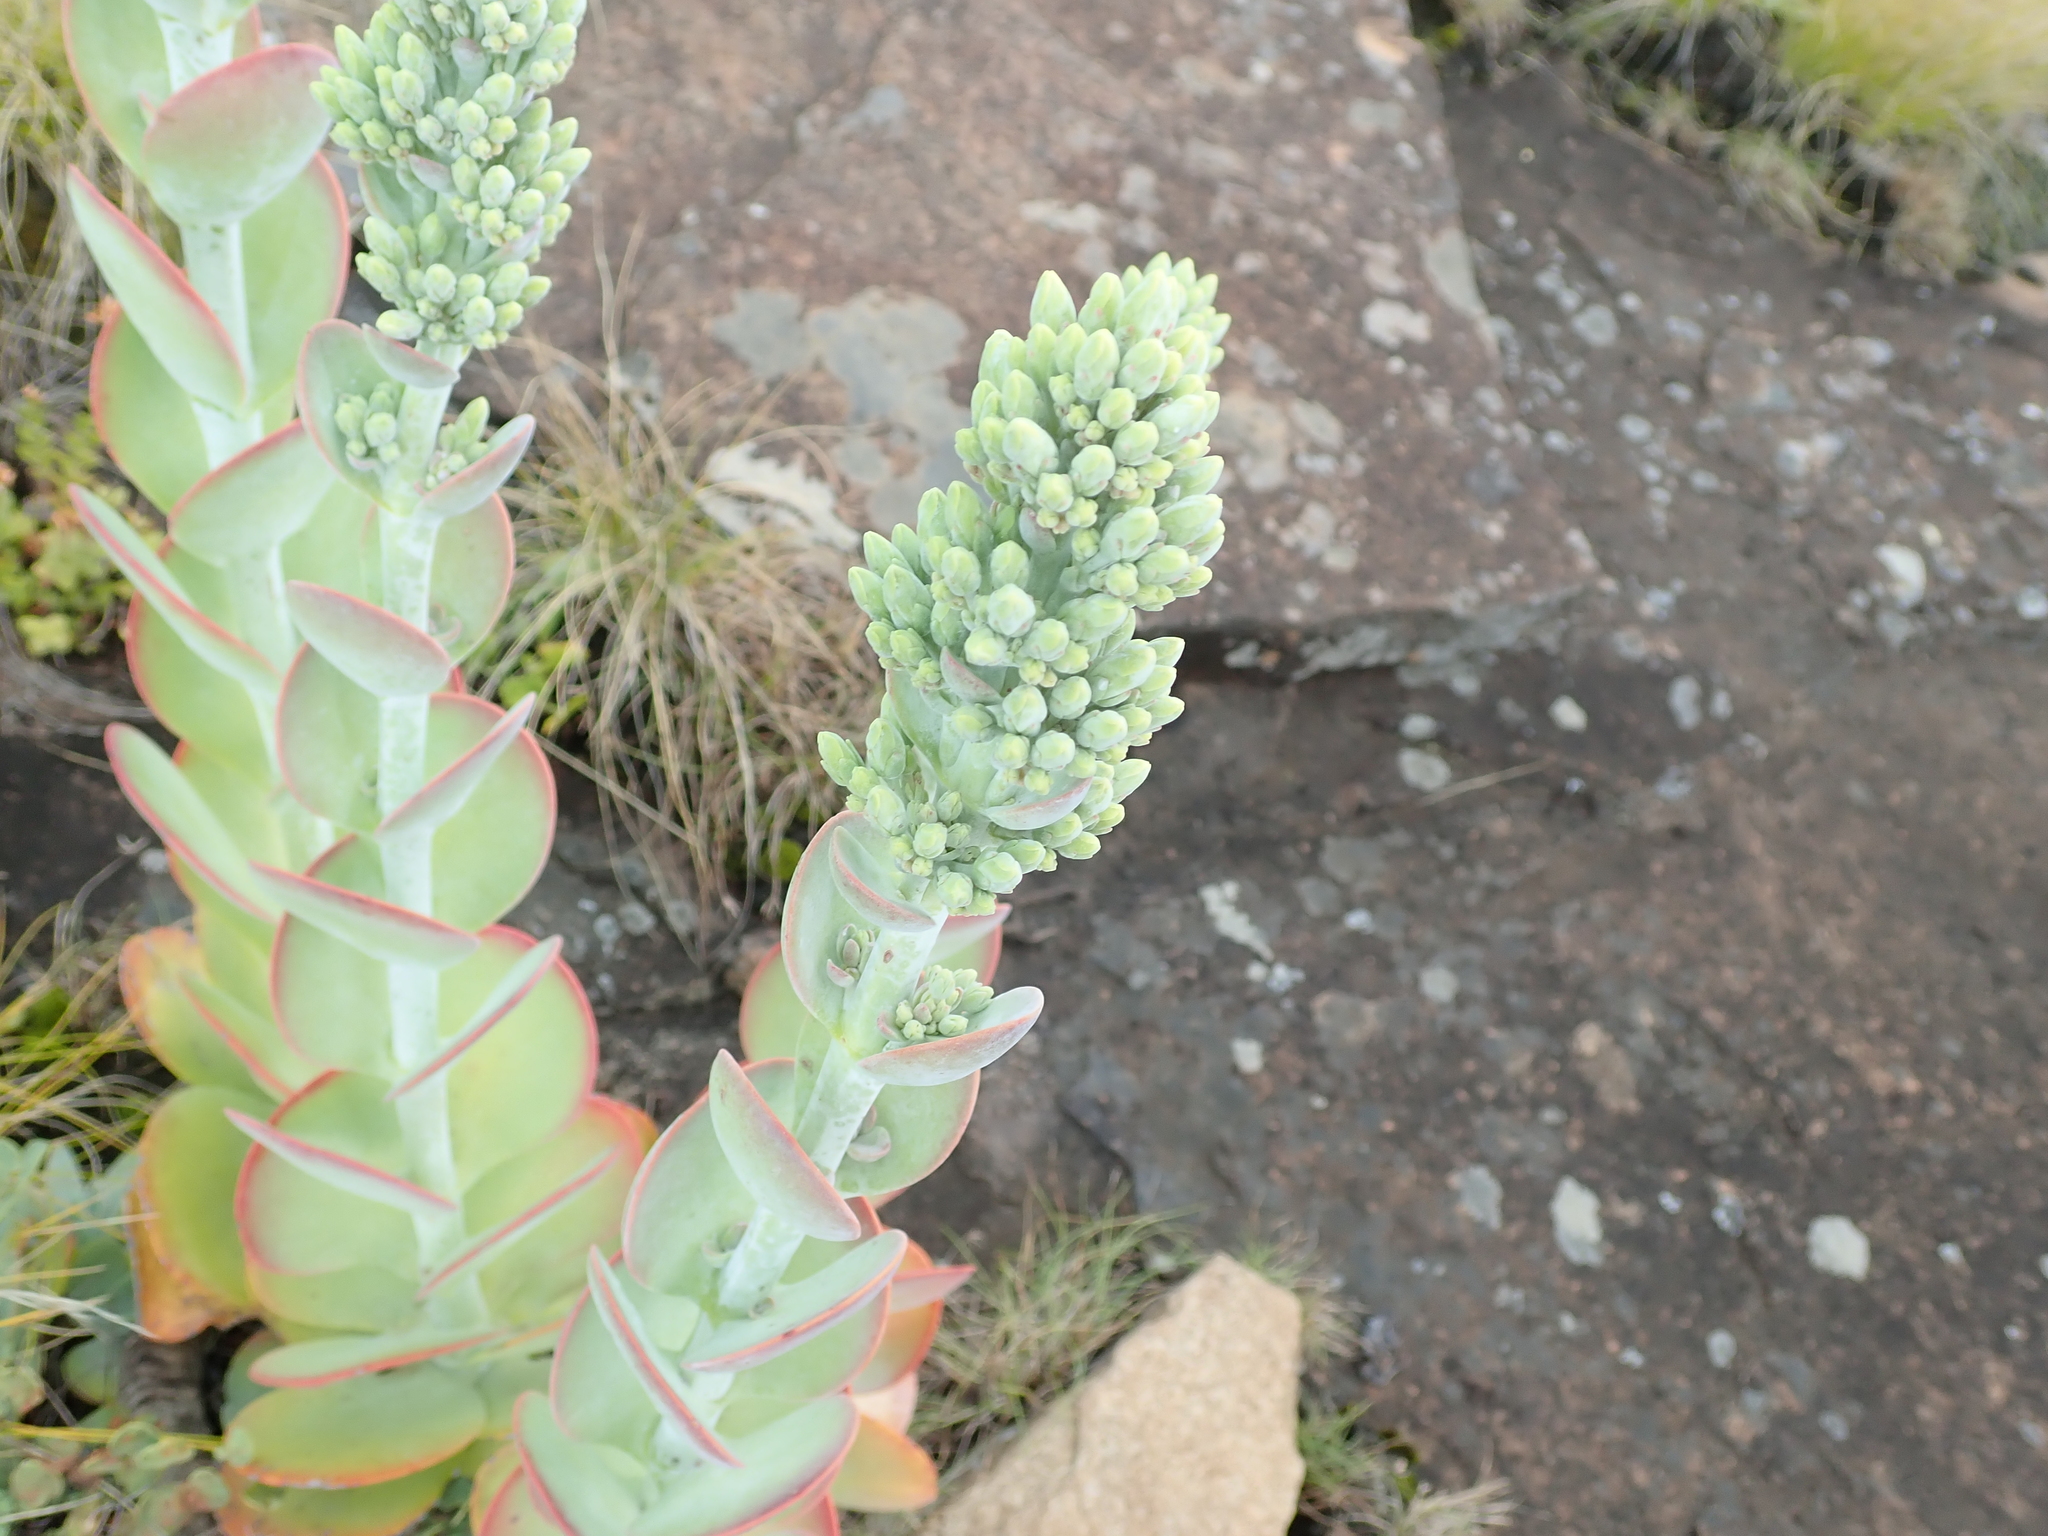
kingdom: Plantae
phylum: Tracheophyta
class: Magnoliopsida
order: Saxifragales
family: Crassulaceae
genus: Kalanchoe
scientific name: Kalanchoe thyrsiflora
